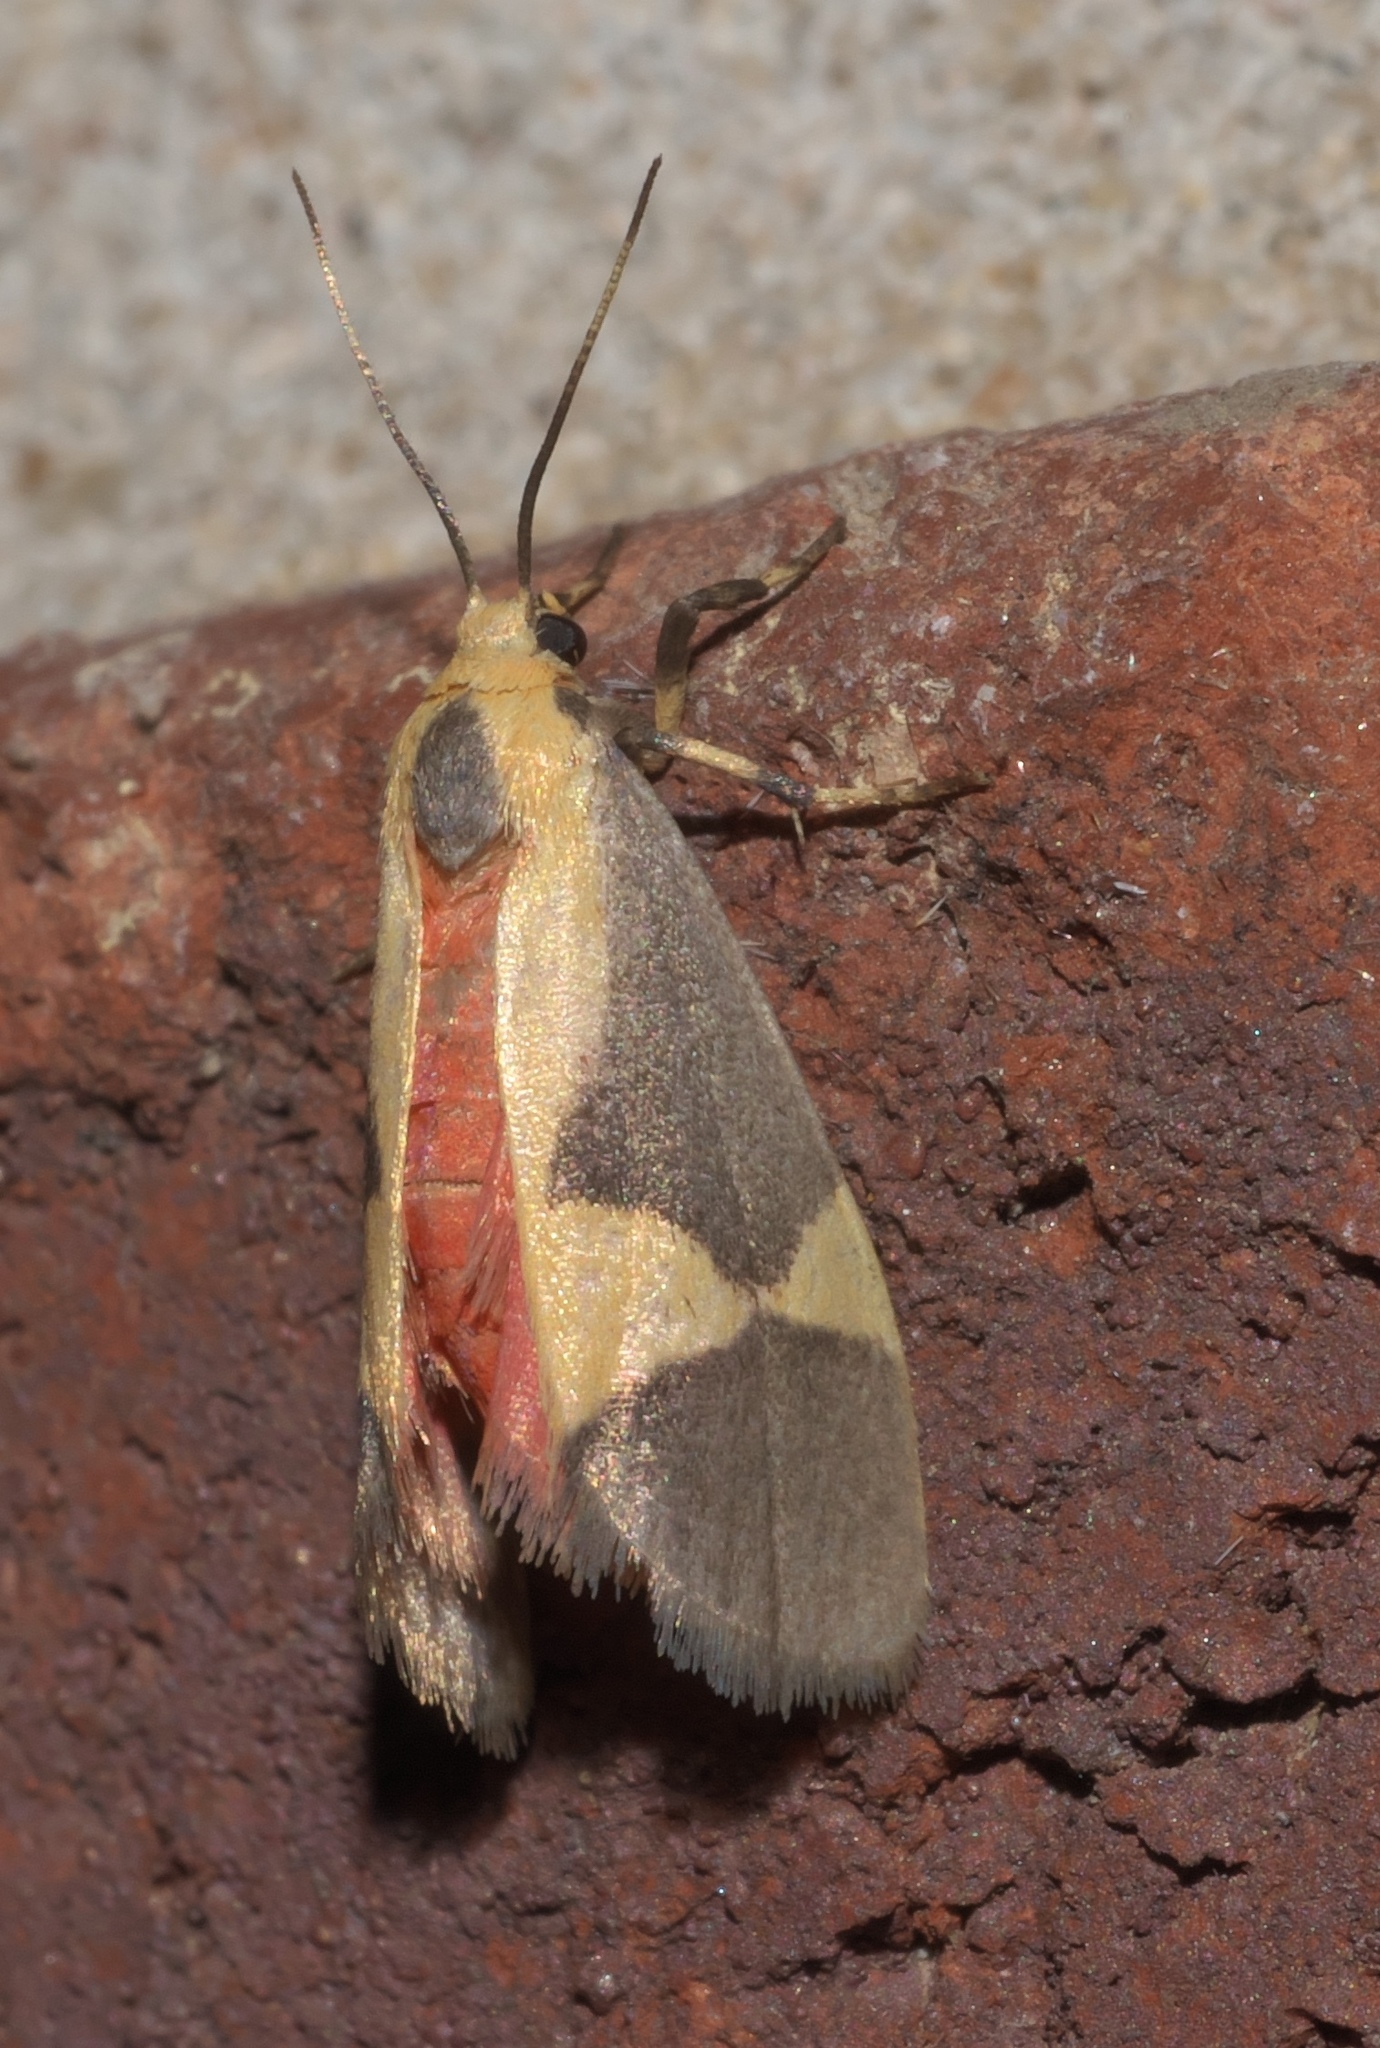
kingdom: Animalia
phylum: Arthropoda
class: Insecta
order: Lepidoptera
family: Erebidae
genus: Cisthene
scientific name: Cisthene unifascia
